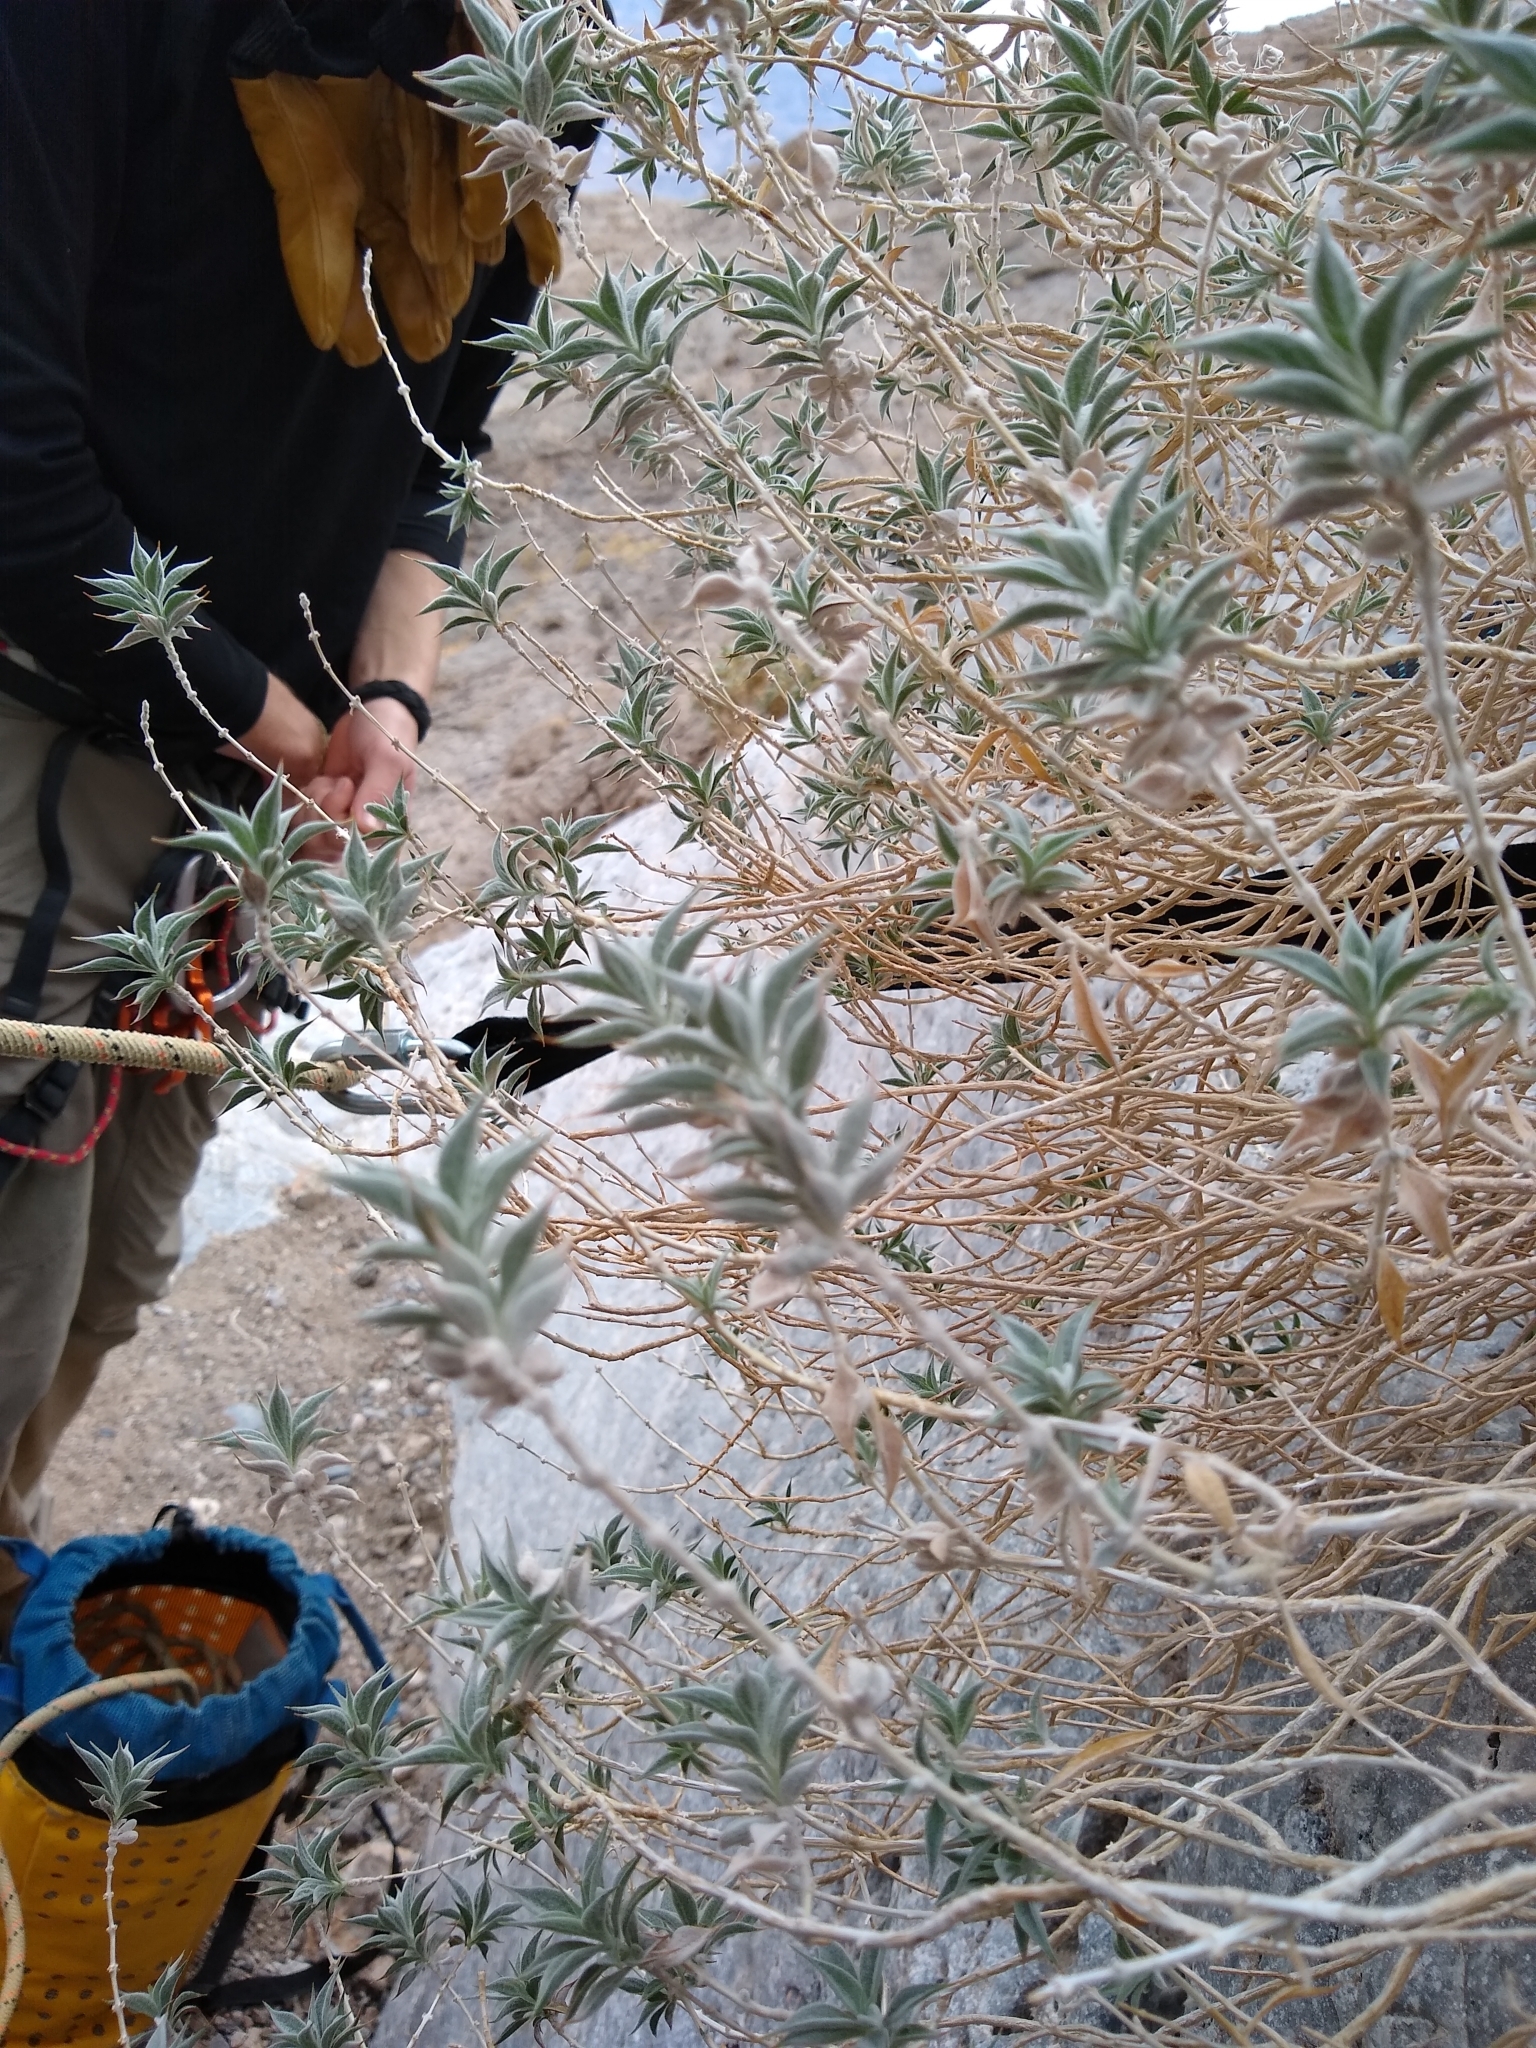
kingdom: Plantae
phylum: Tracheophyta
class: Magnoliopsida
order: Lamiales
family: Lamiaceae
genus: Salvia
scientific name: Salvia funerea
